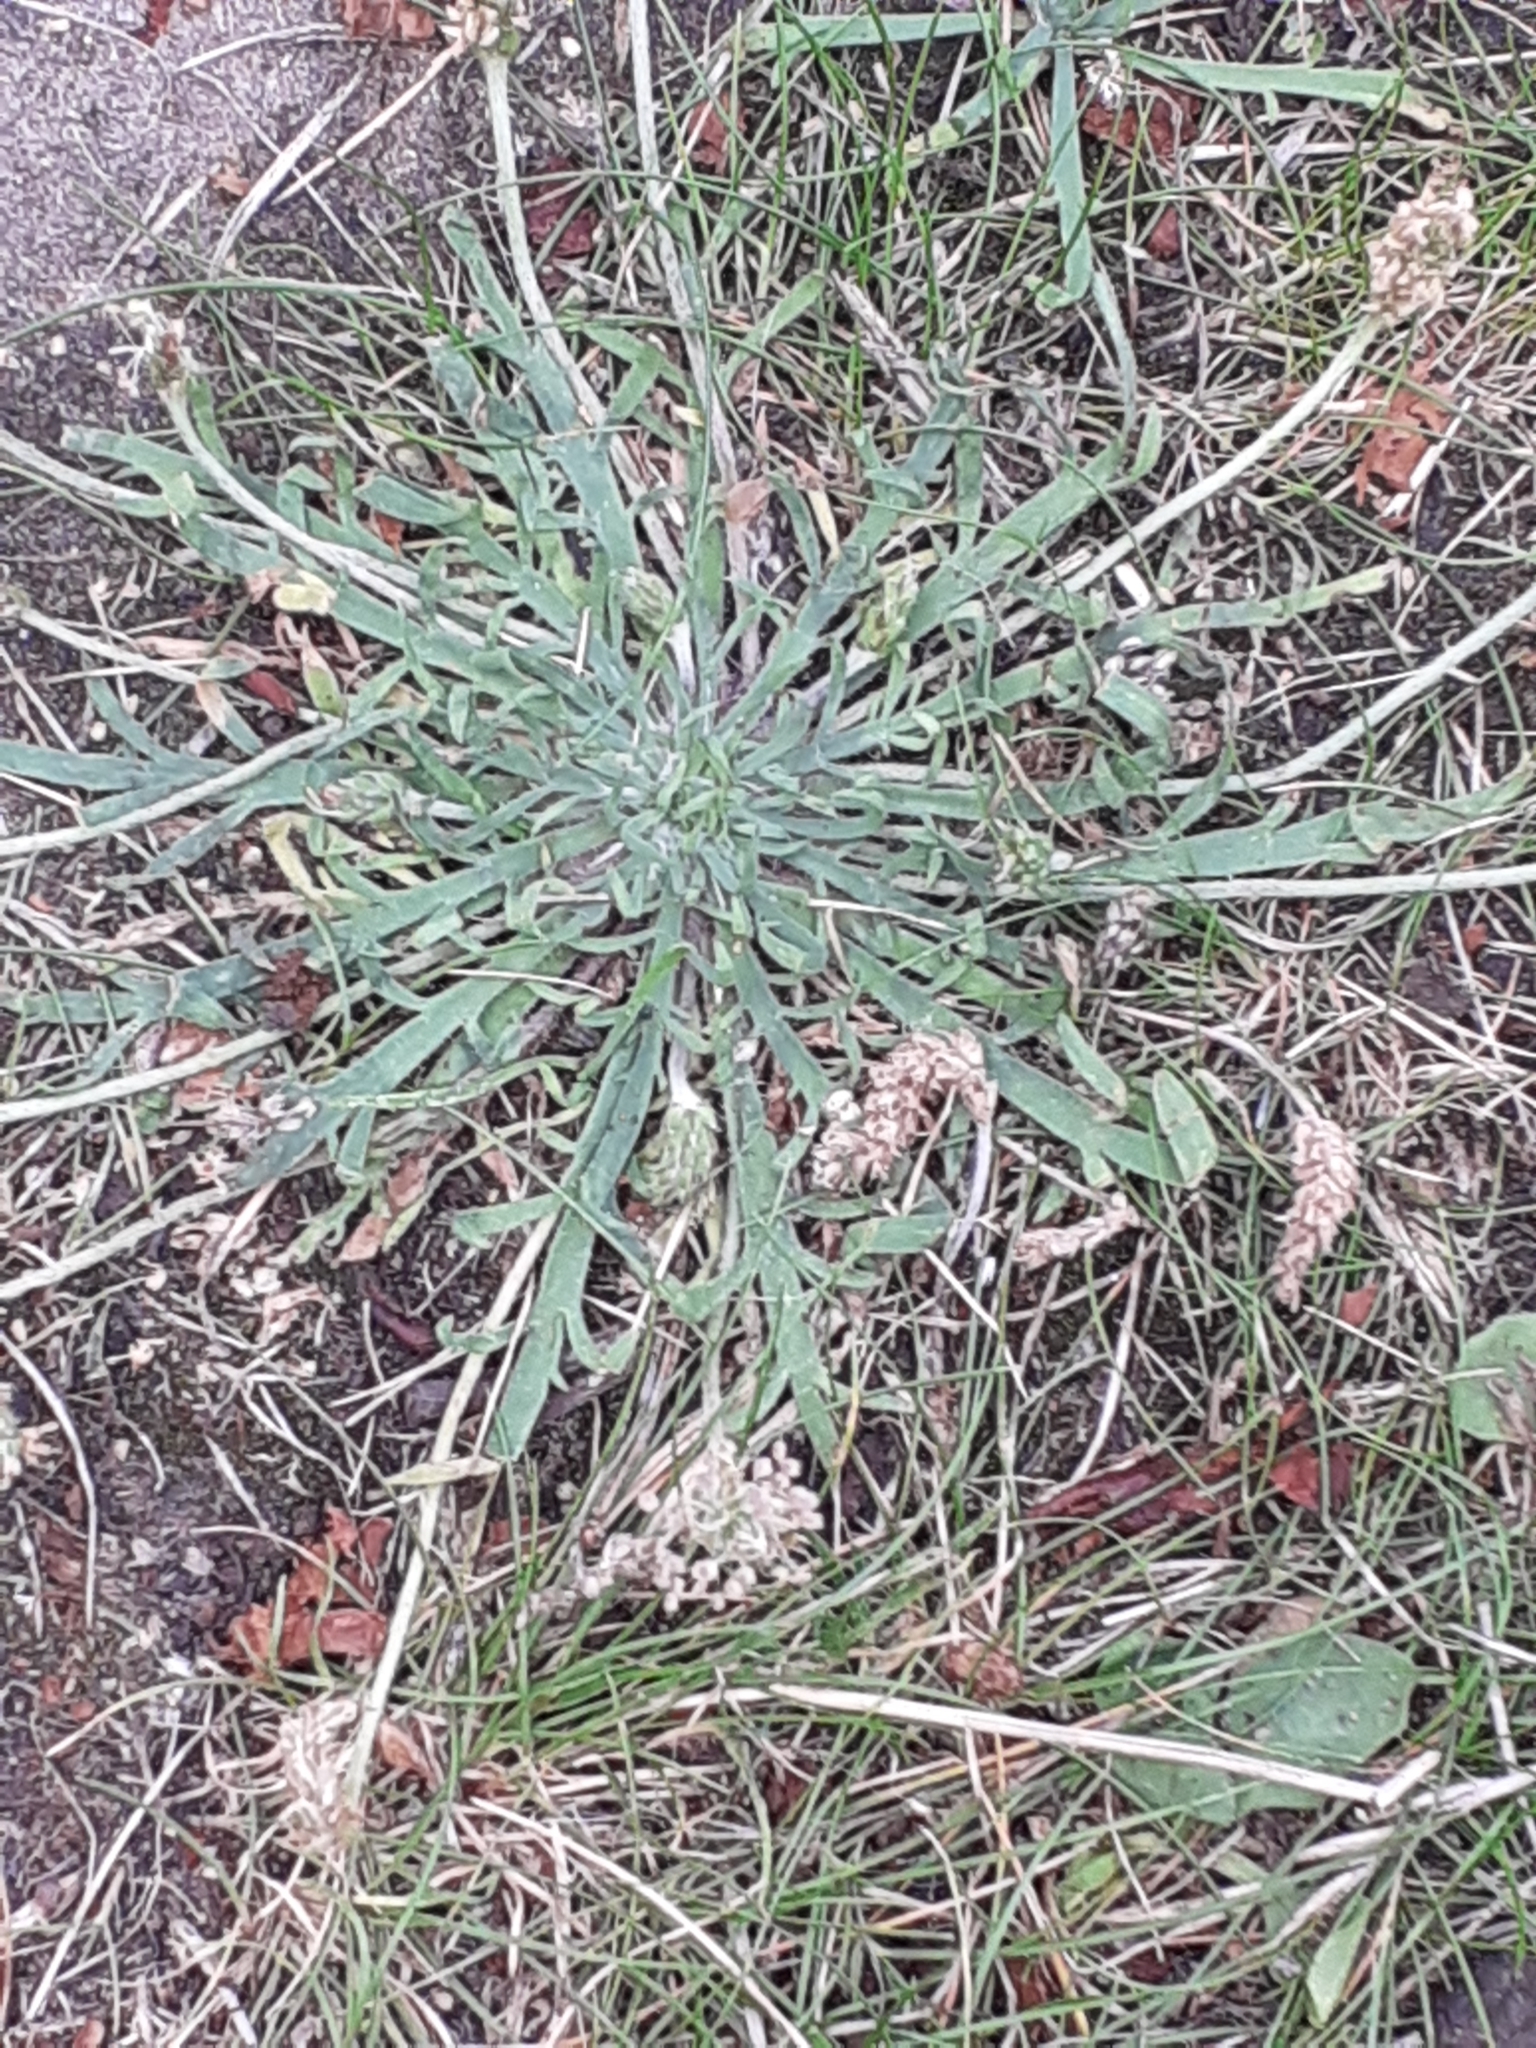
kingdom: Plantae
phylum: Tracheophyta
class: Magnoliopsida
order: Lamiales
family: Plantaginaceae
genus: Plantago
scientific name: Plantago coronopus
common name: Buck's-horn plantain
